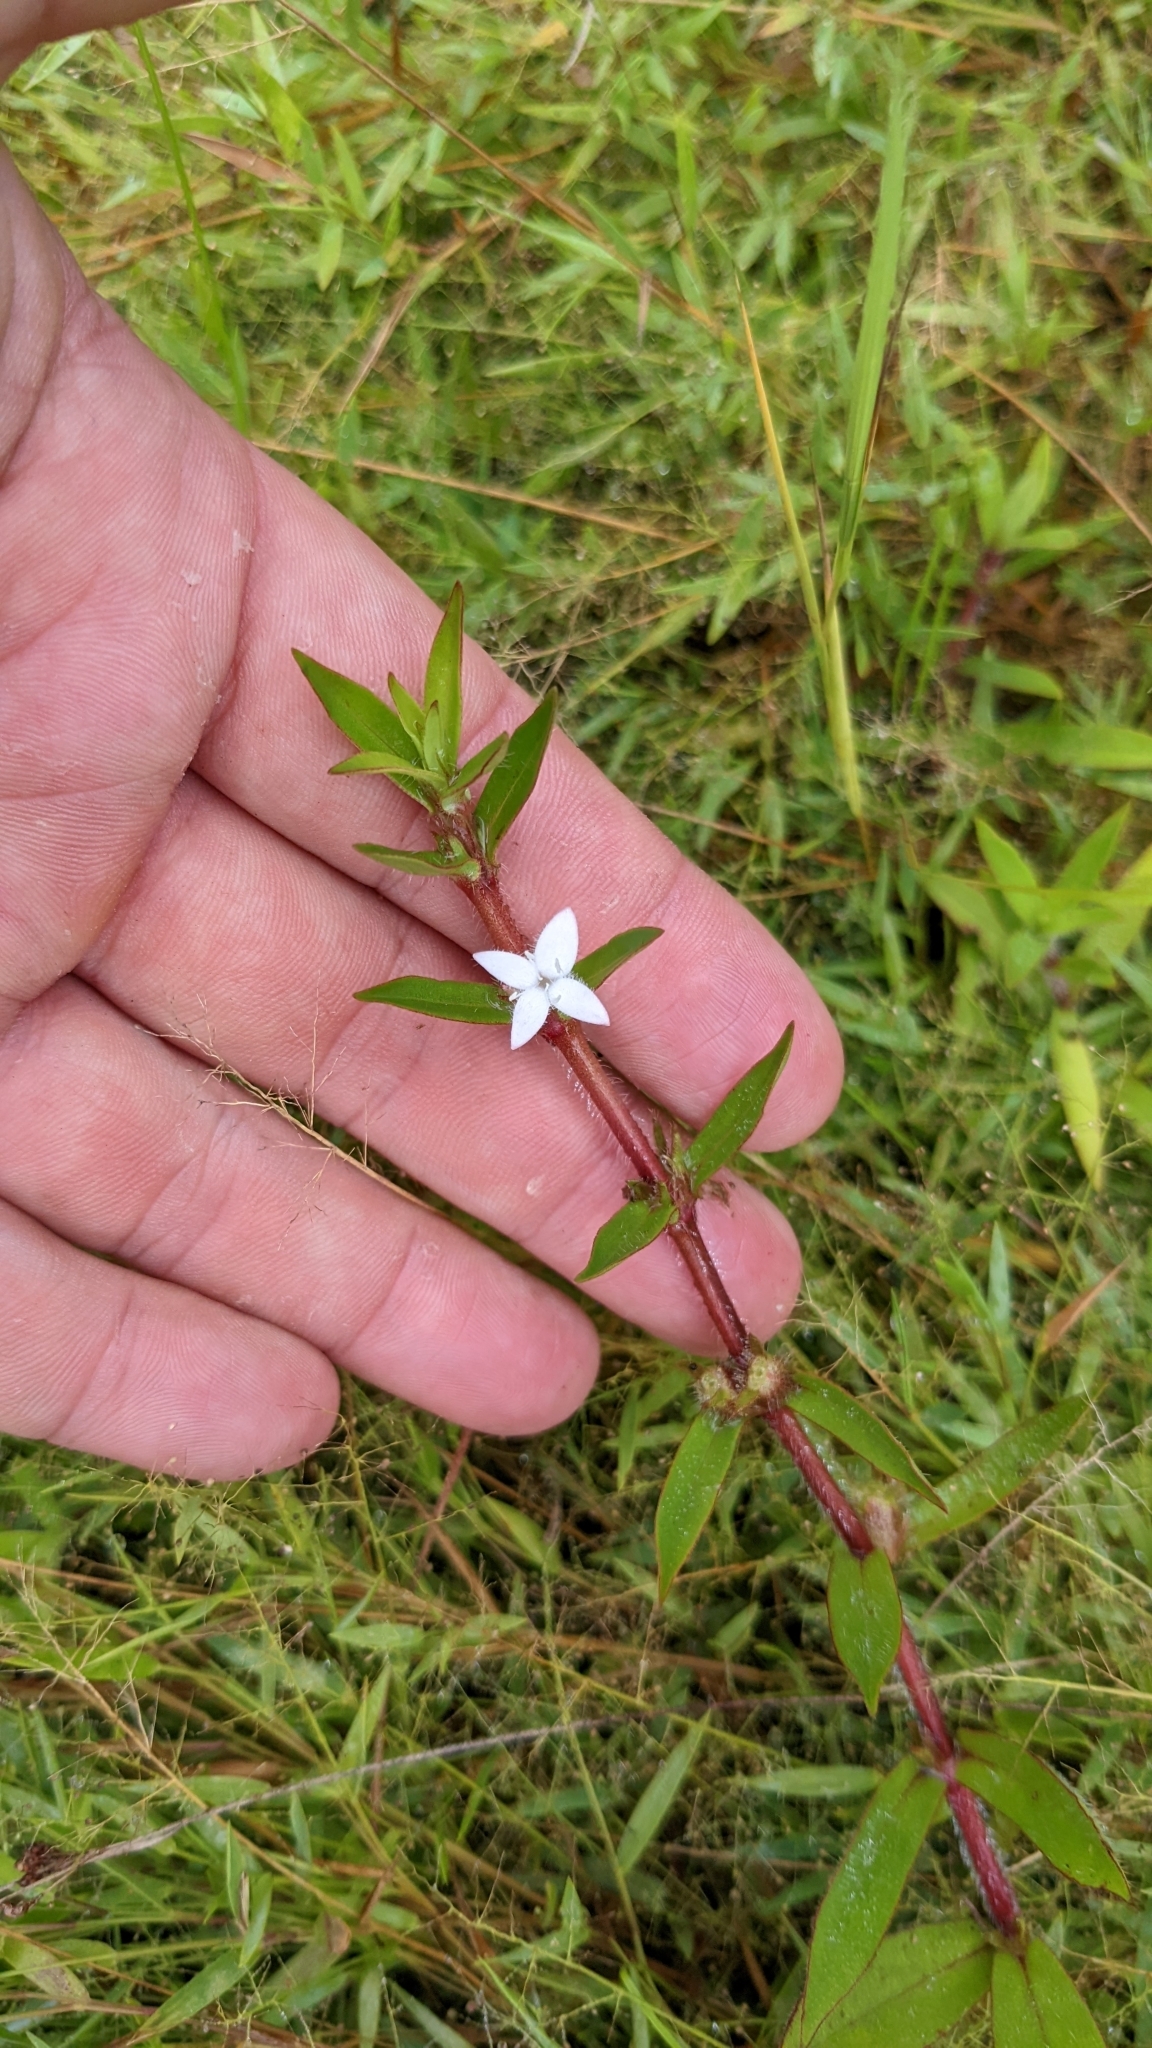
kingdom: Plantae
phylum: Tracheophyta
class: Magnoliopsida
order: Gentianales
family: Rubiaceae
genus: Diodia
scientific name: Diodia virginiana
